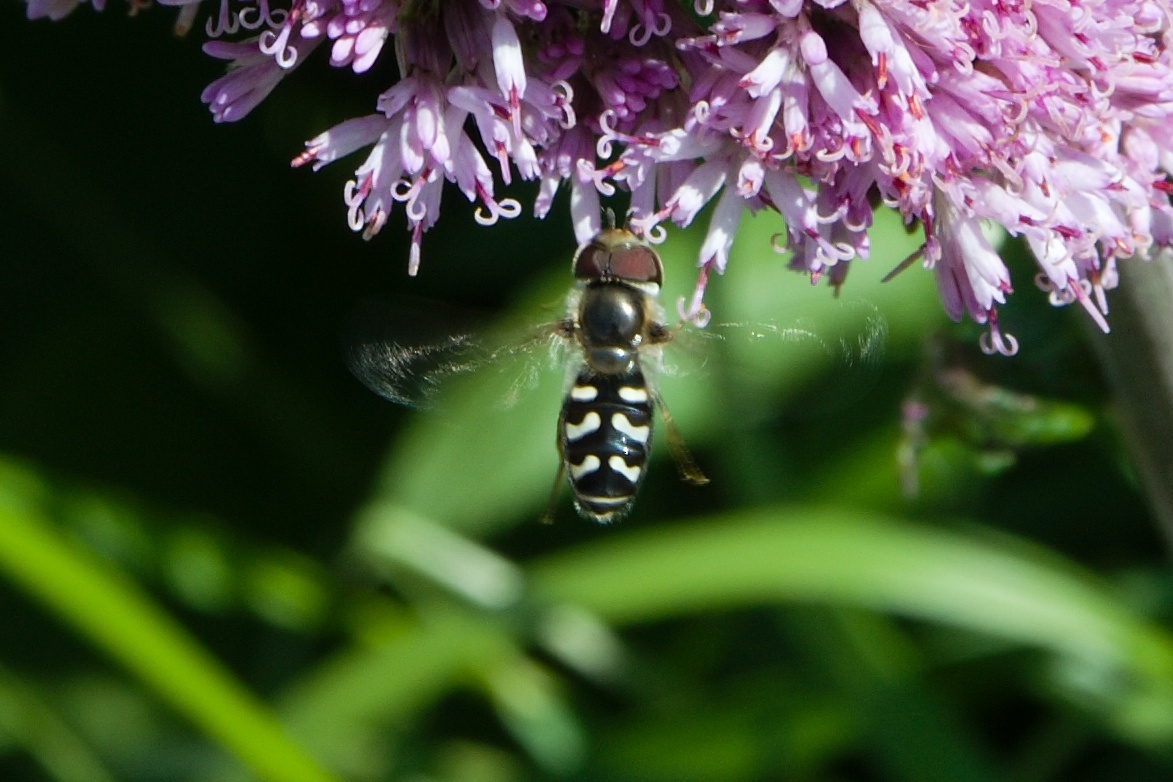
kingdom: Animalia
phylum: Arthropoda
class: Insecta
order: Diptera
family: Syrphidae
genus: Scaeva
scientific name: Scaeva pyrastri
